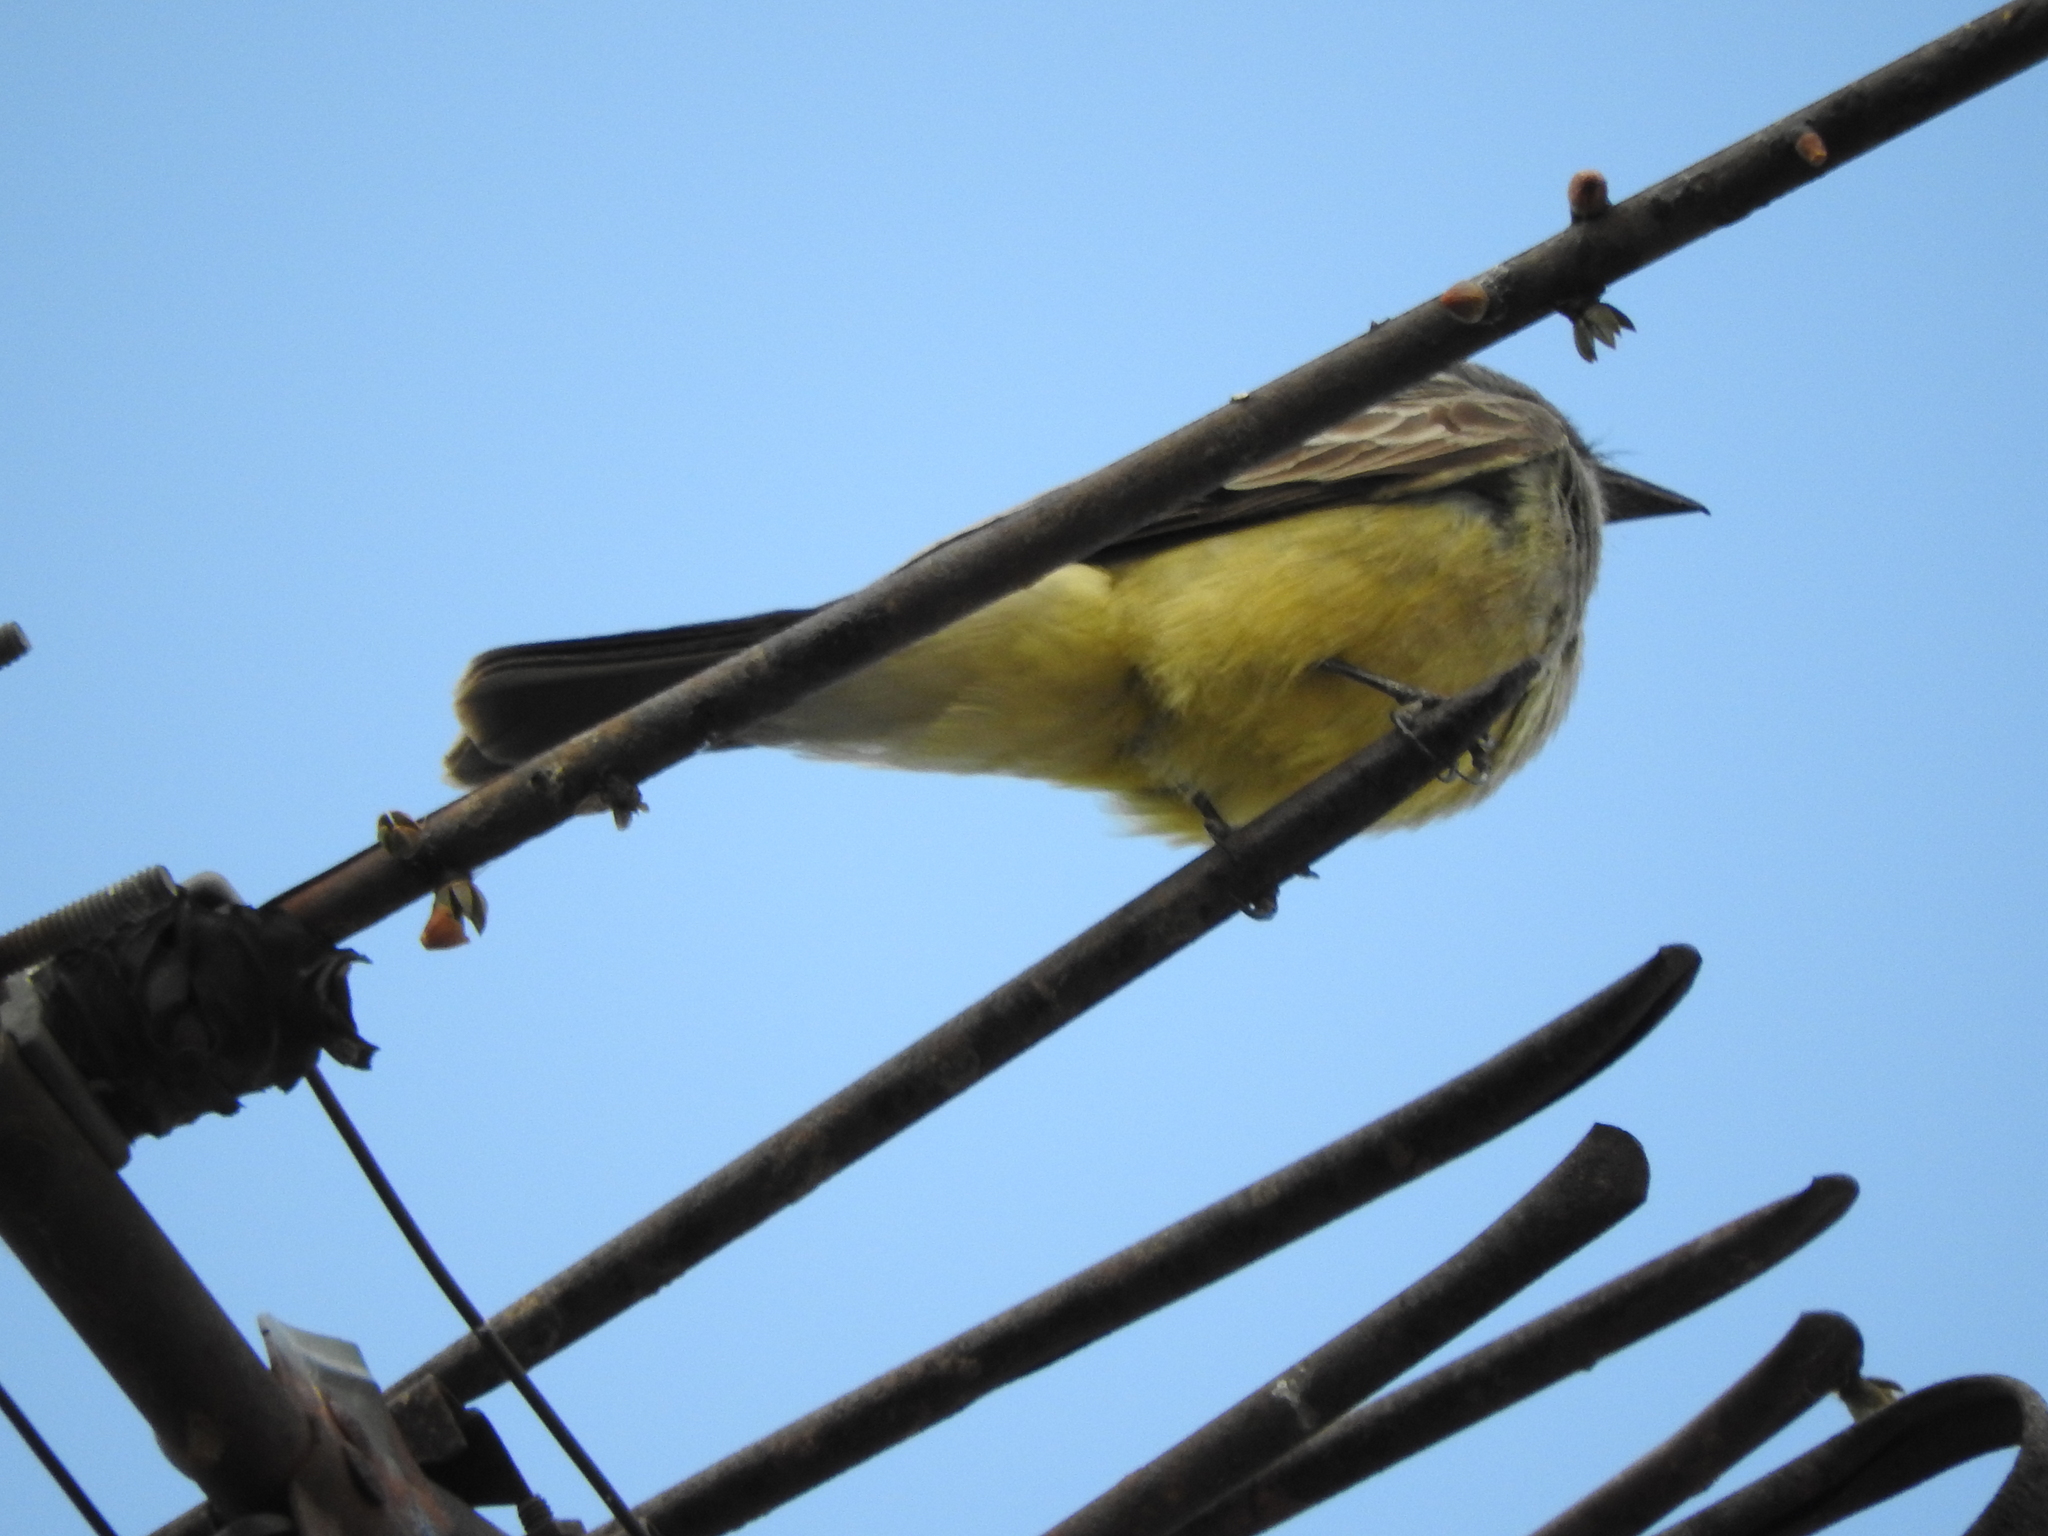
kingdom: Animalia
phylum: Chordata
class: Aves
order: Passeriformes
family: Tyrannidae
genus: Tyrannus
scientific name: Tyrannus vociferans
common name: Cassin's kingbird
